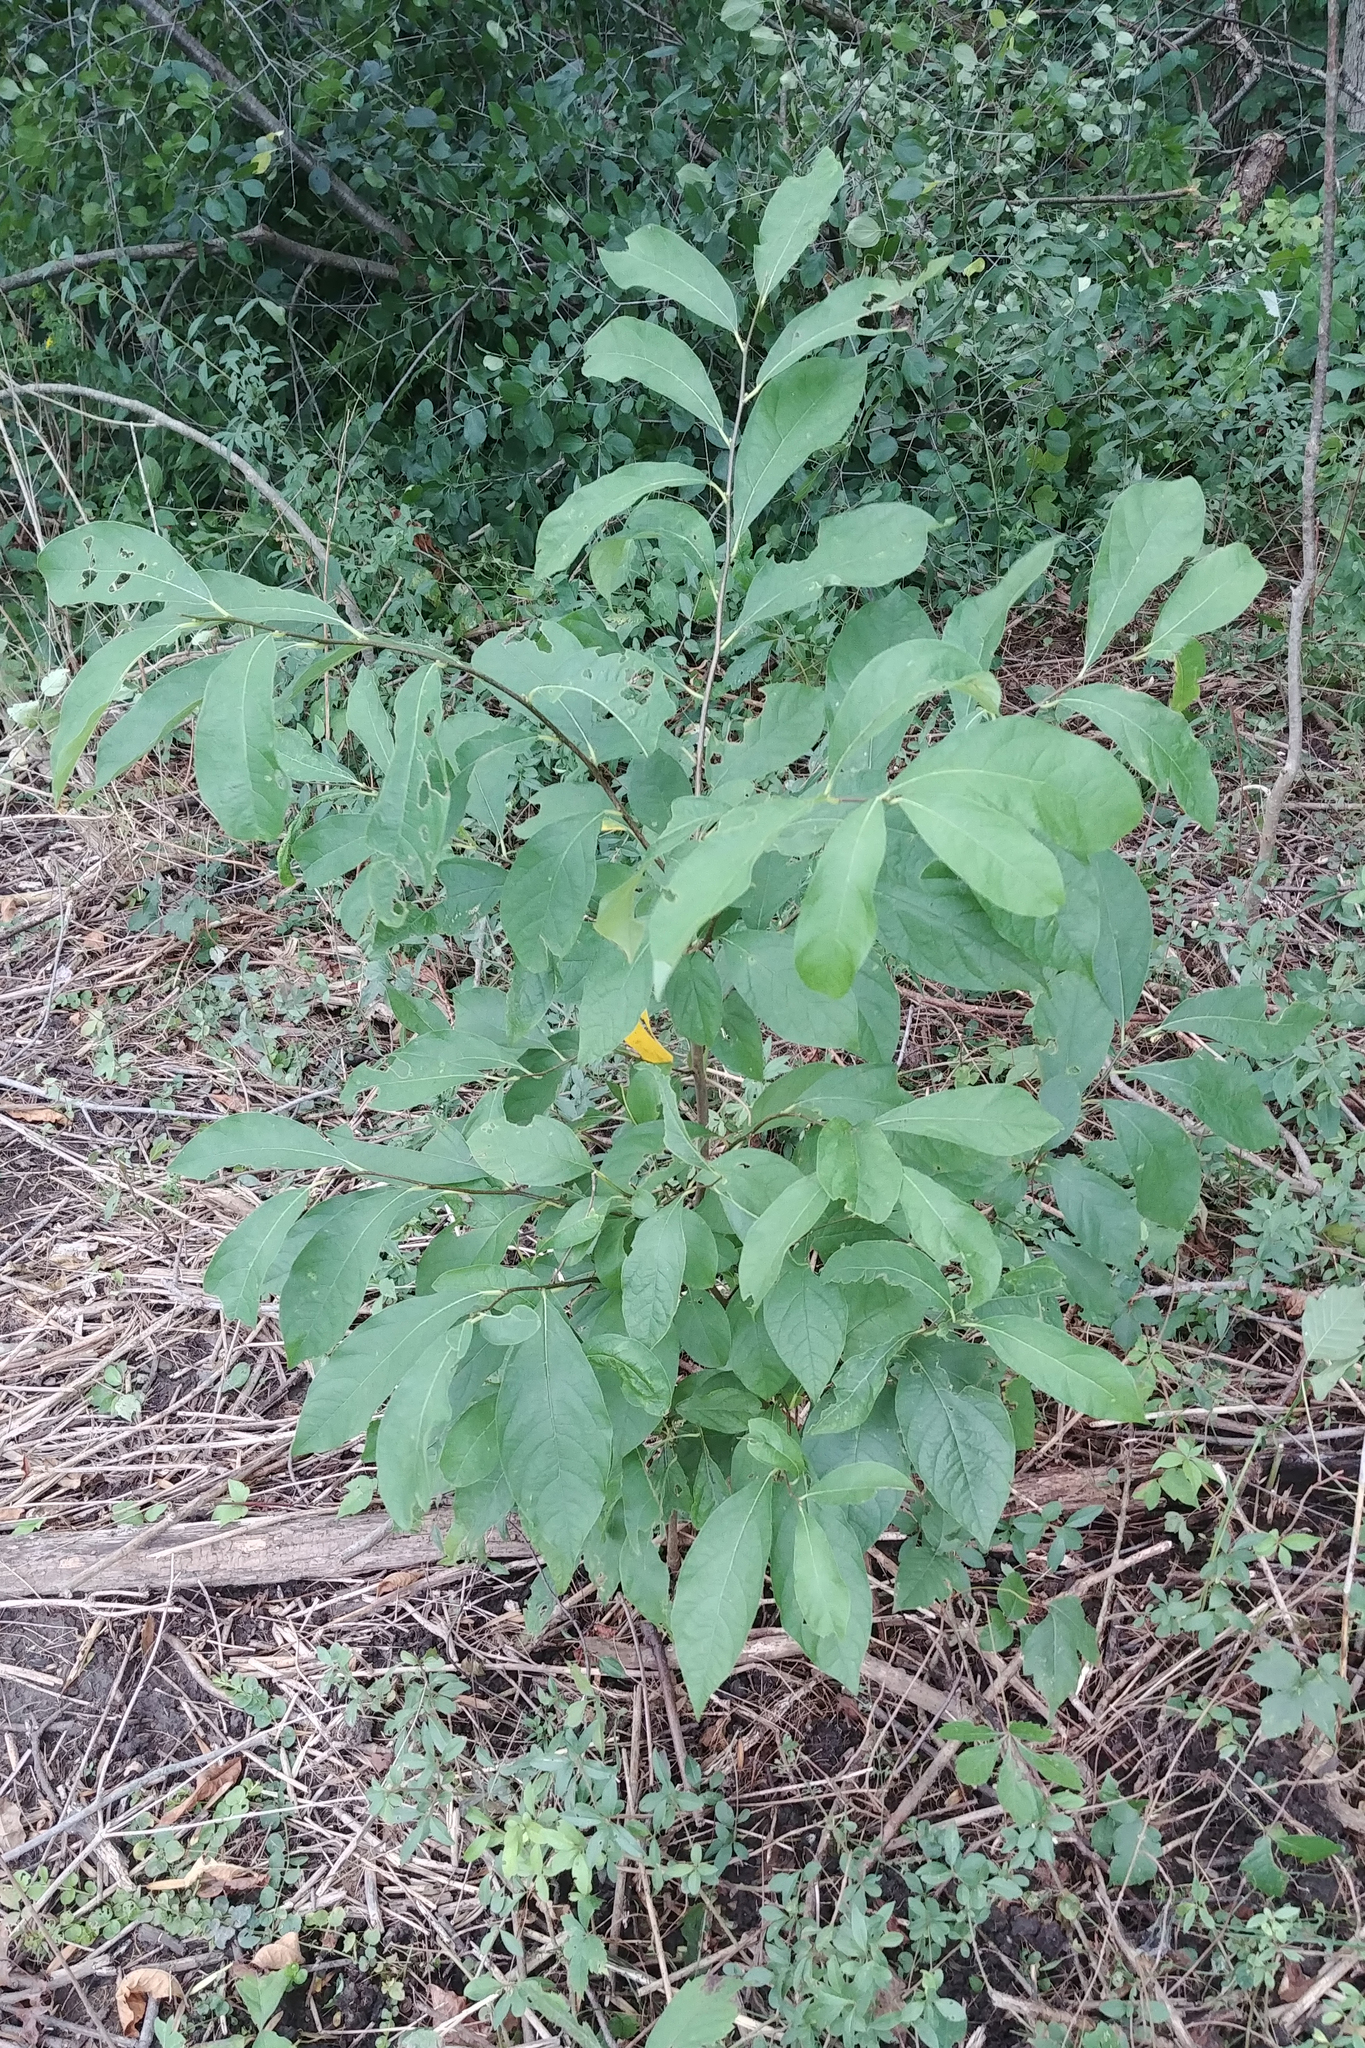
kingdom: Plantae
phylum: Tracheophyta
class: Magnoliopsida
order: Laurales
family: Lauraceae
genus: Lindera
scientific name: Lindera benzoin
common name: Spicebush
